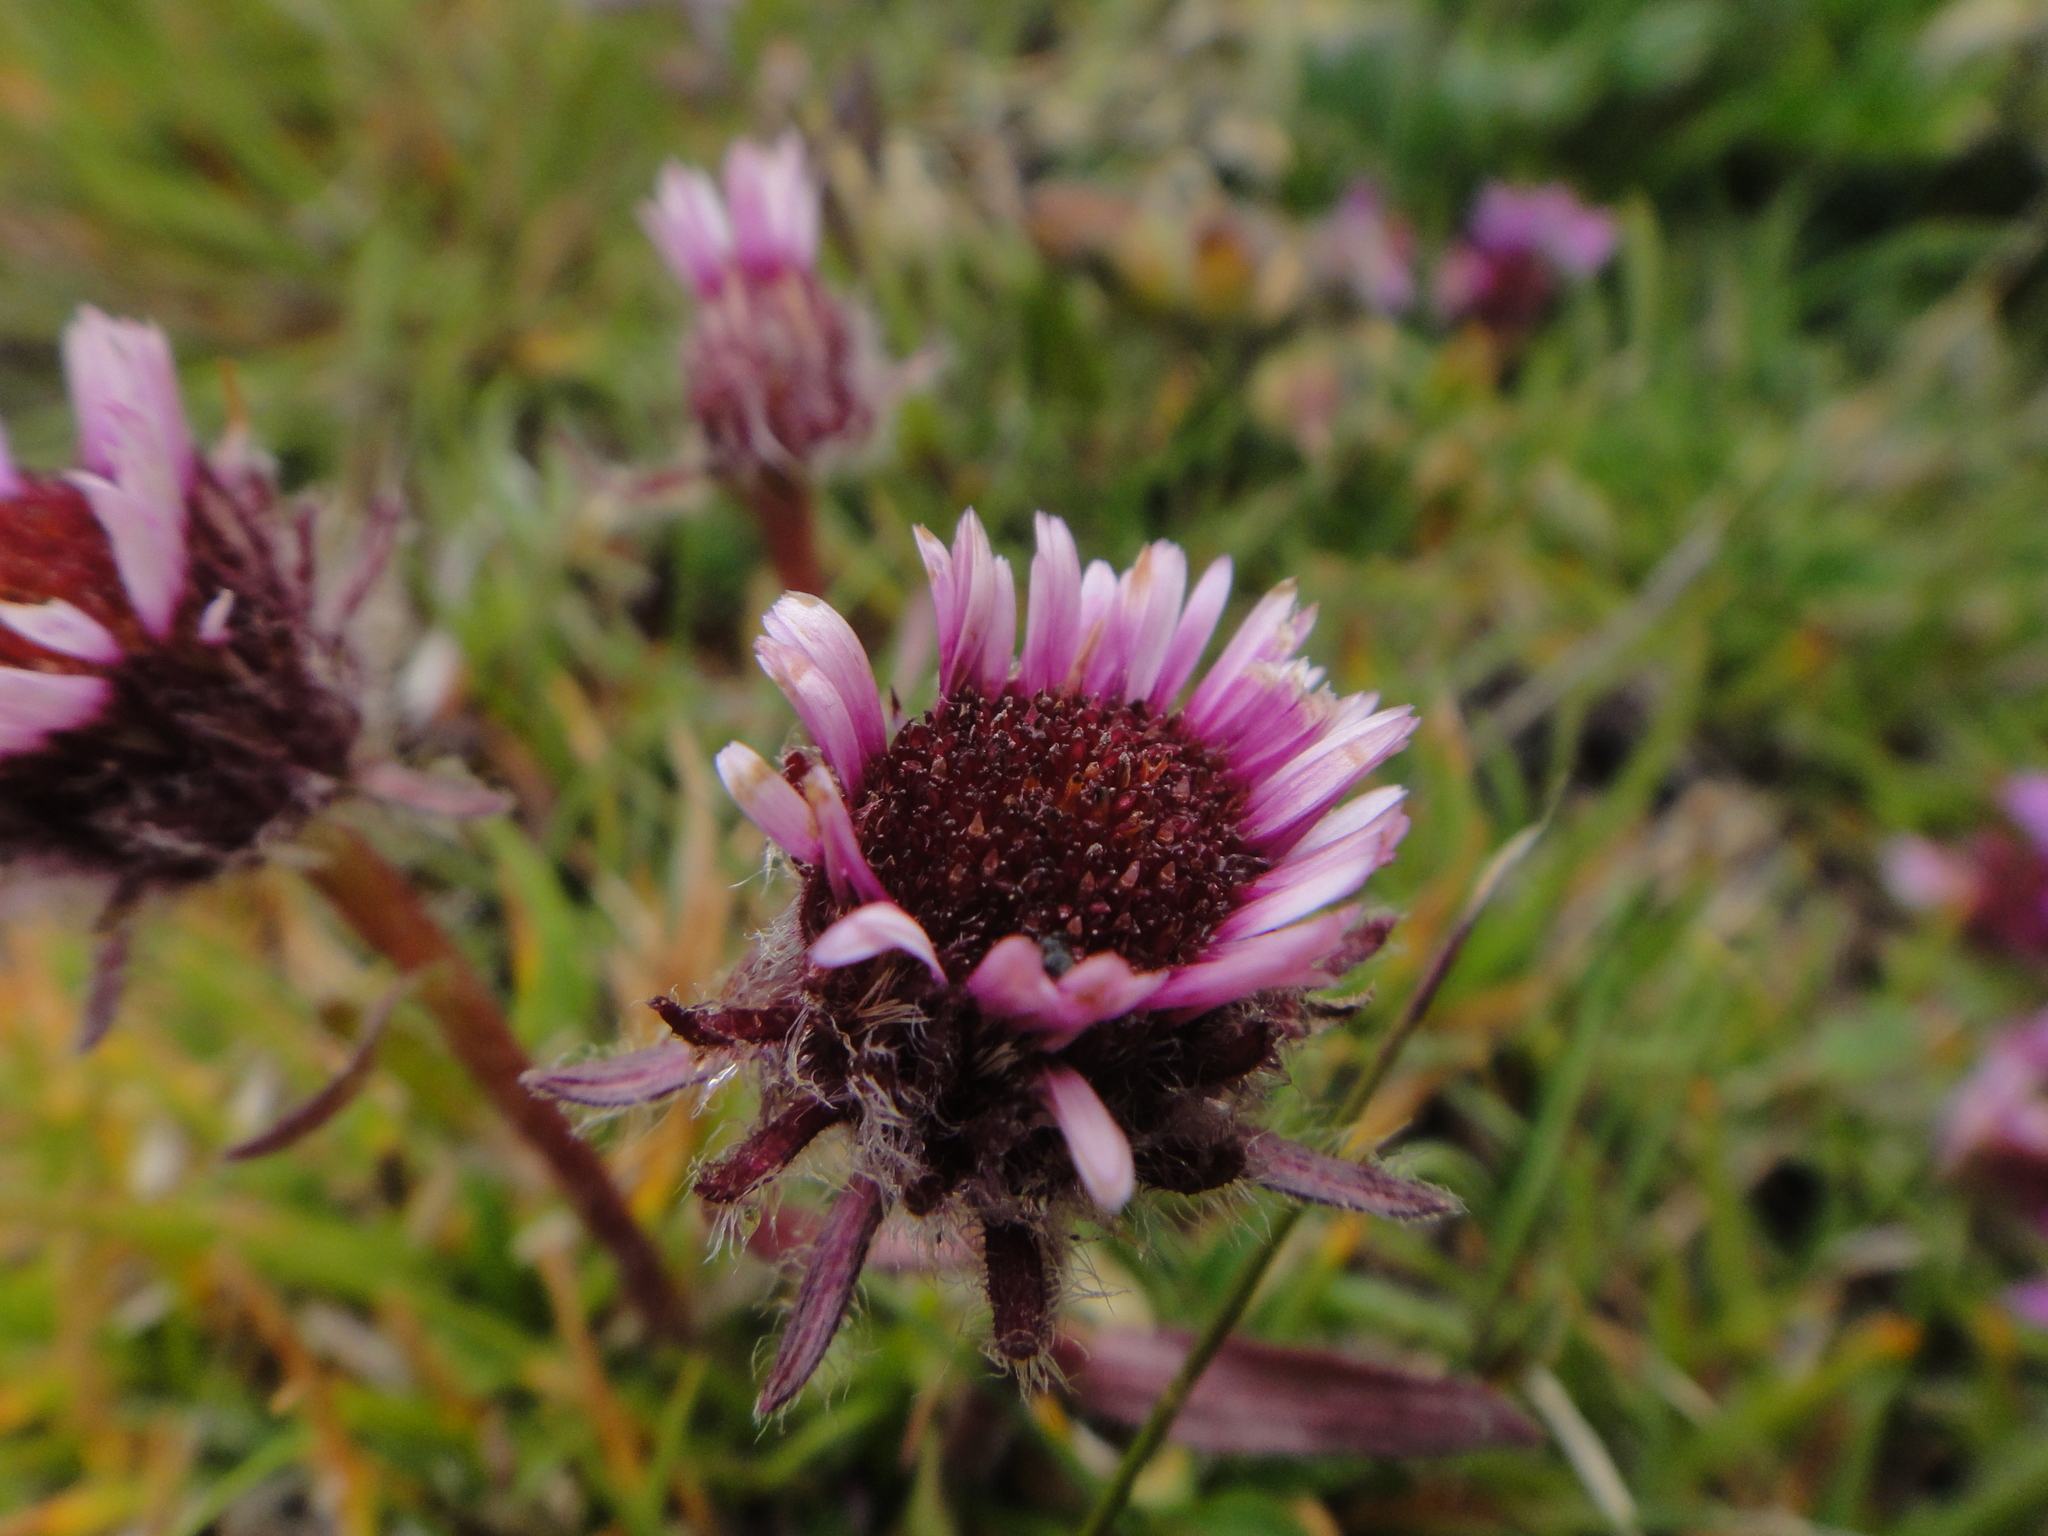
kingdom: Plantae
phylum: Tracheophyta
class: Magnoliopsida
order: Asterales
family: Asteraceae
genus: Erigeron
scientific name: Erigeron uniflorus
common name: Northern daisy
